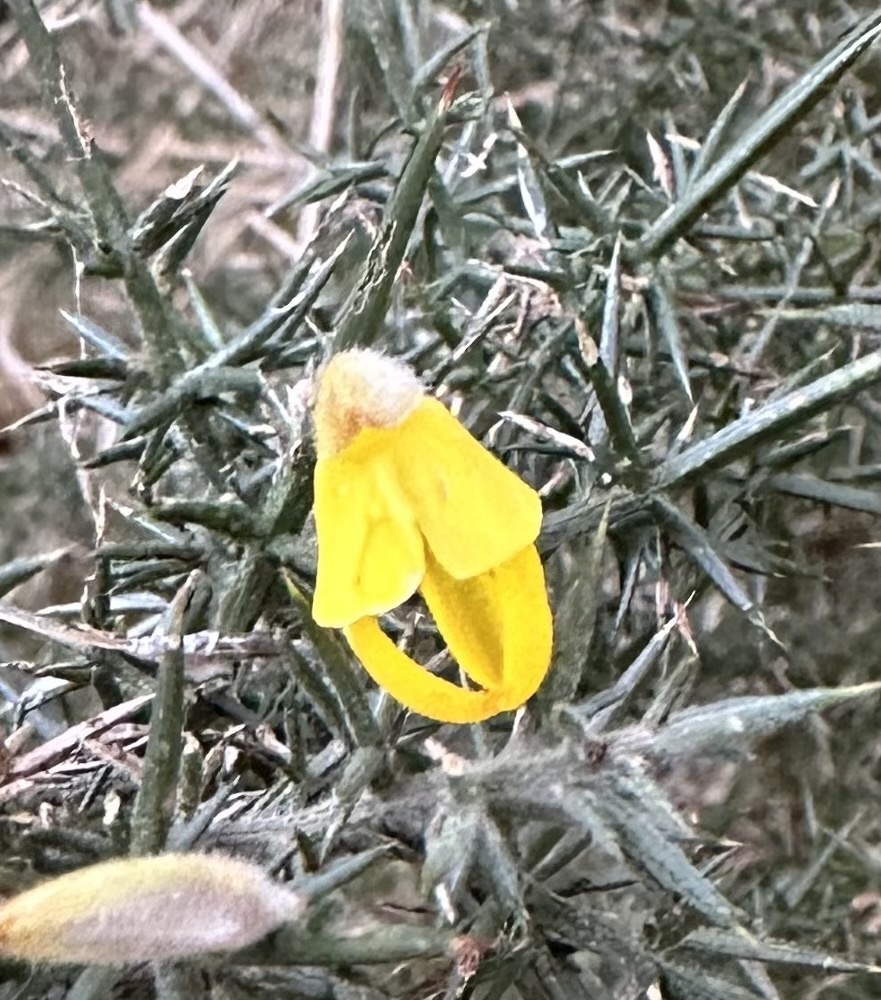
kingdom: Plantae
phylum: Tracheophyta
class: Magnoliopsida
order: Fabales
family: Fabaceae
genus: Ulex
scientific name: Ulex europaeus
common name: Common gorse
